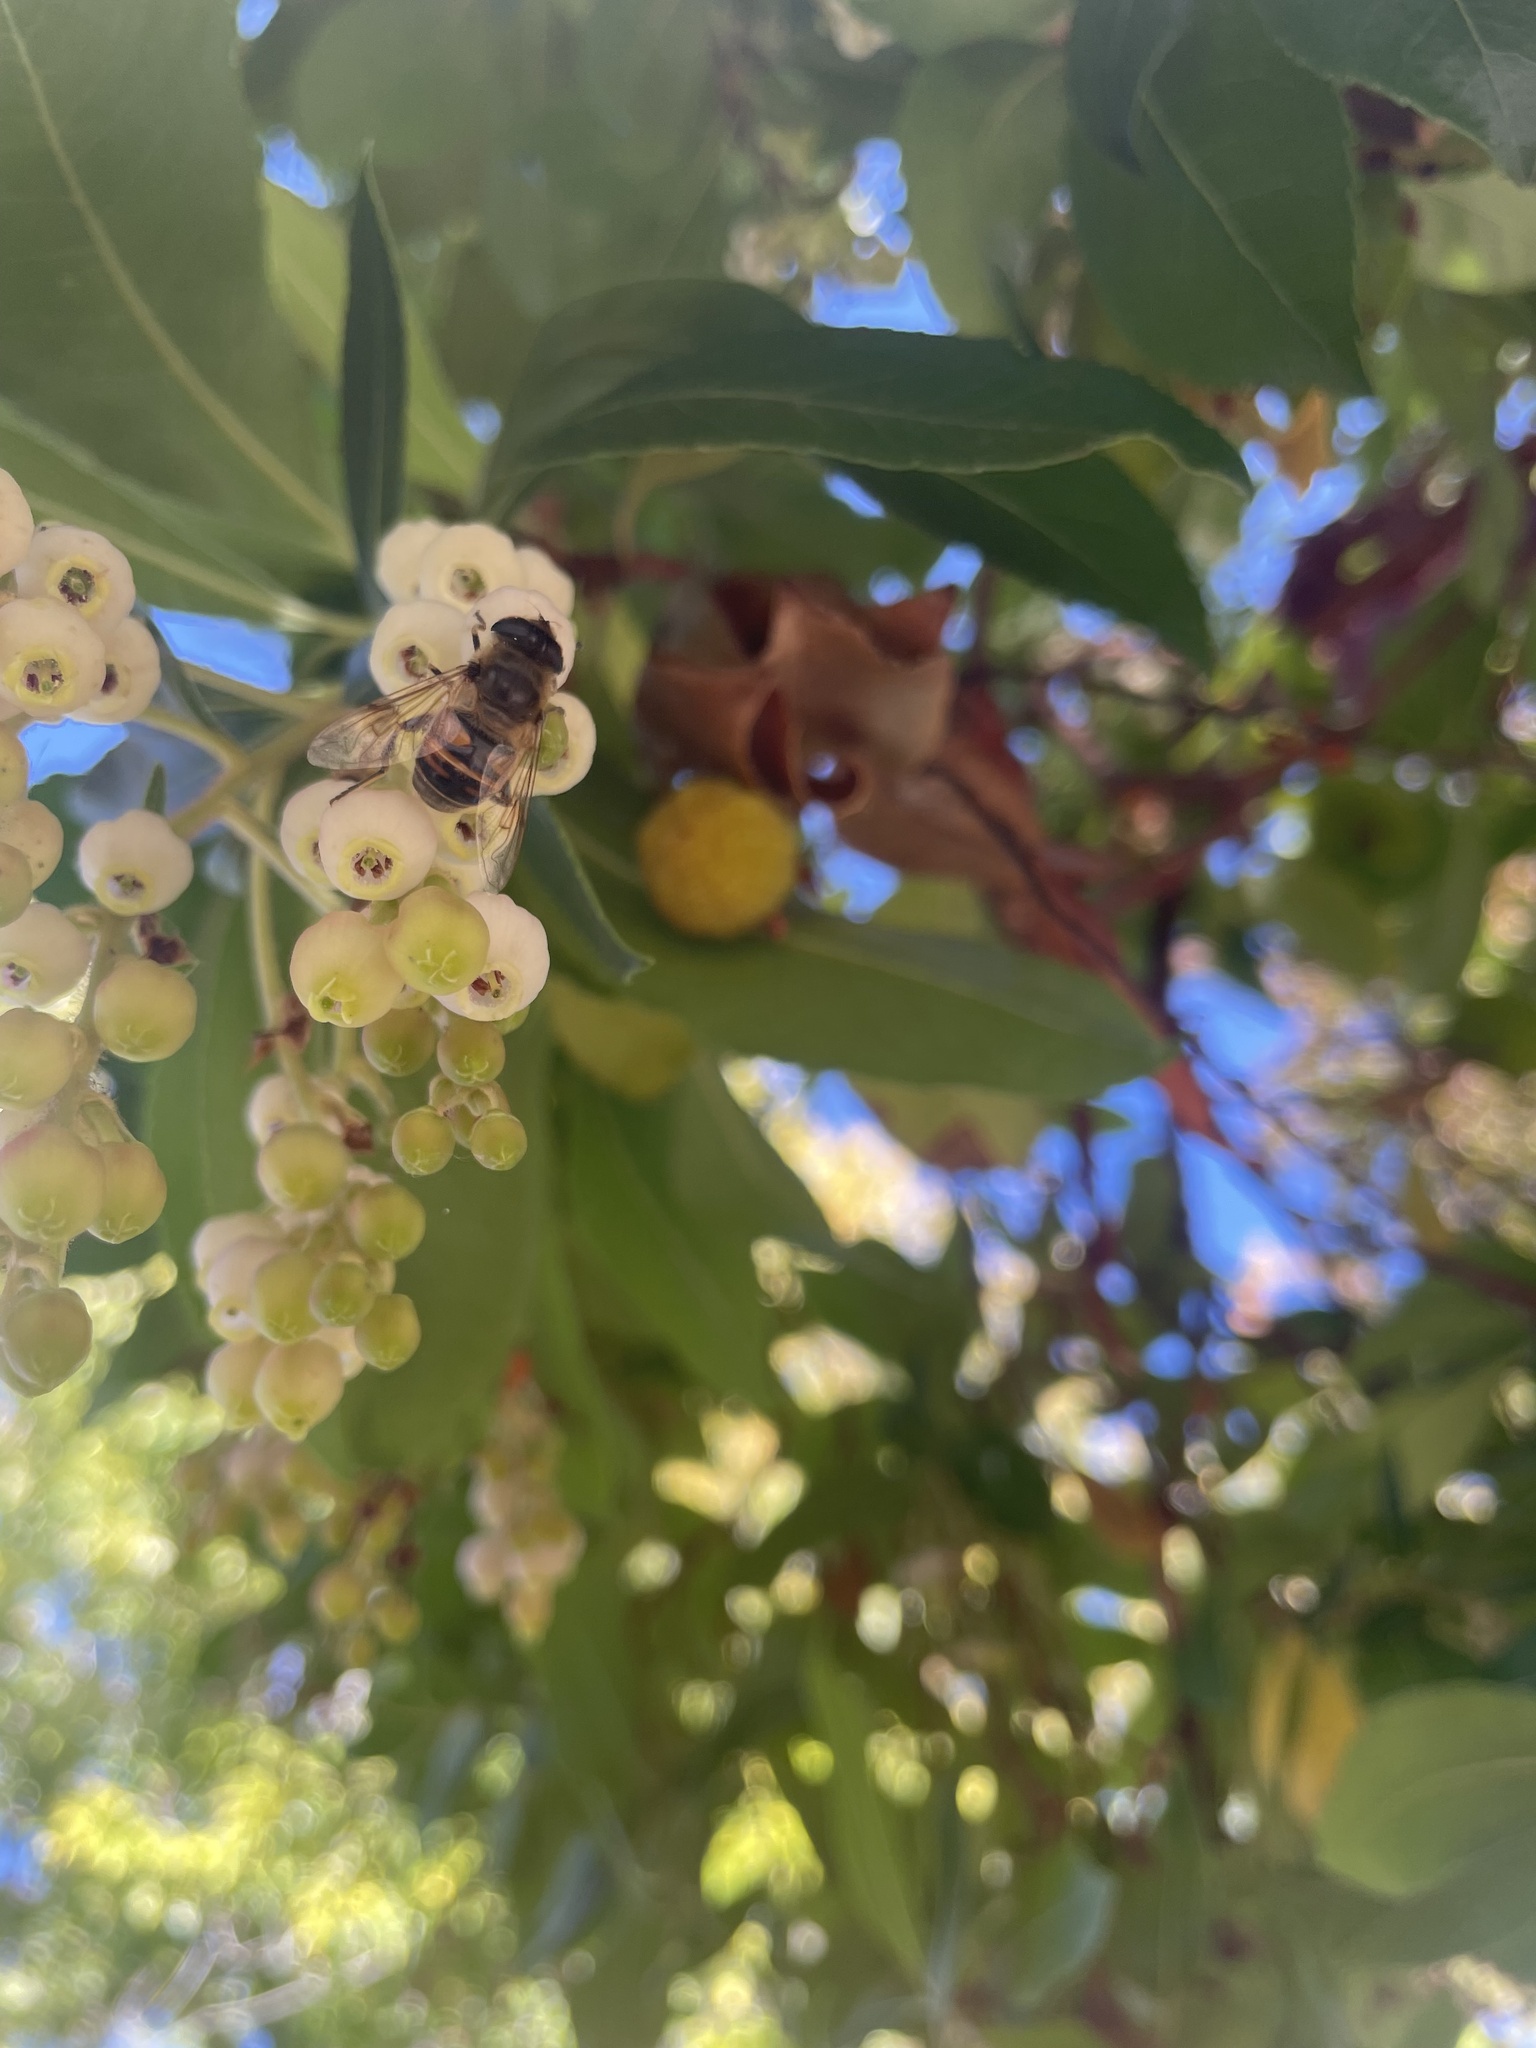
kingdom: Animalia
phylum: Arthropoda
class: Insecta
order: Diptera
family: Syrphidae
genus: Eristalis
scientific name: Eristalis tenax
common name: Drone fly
